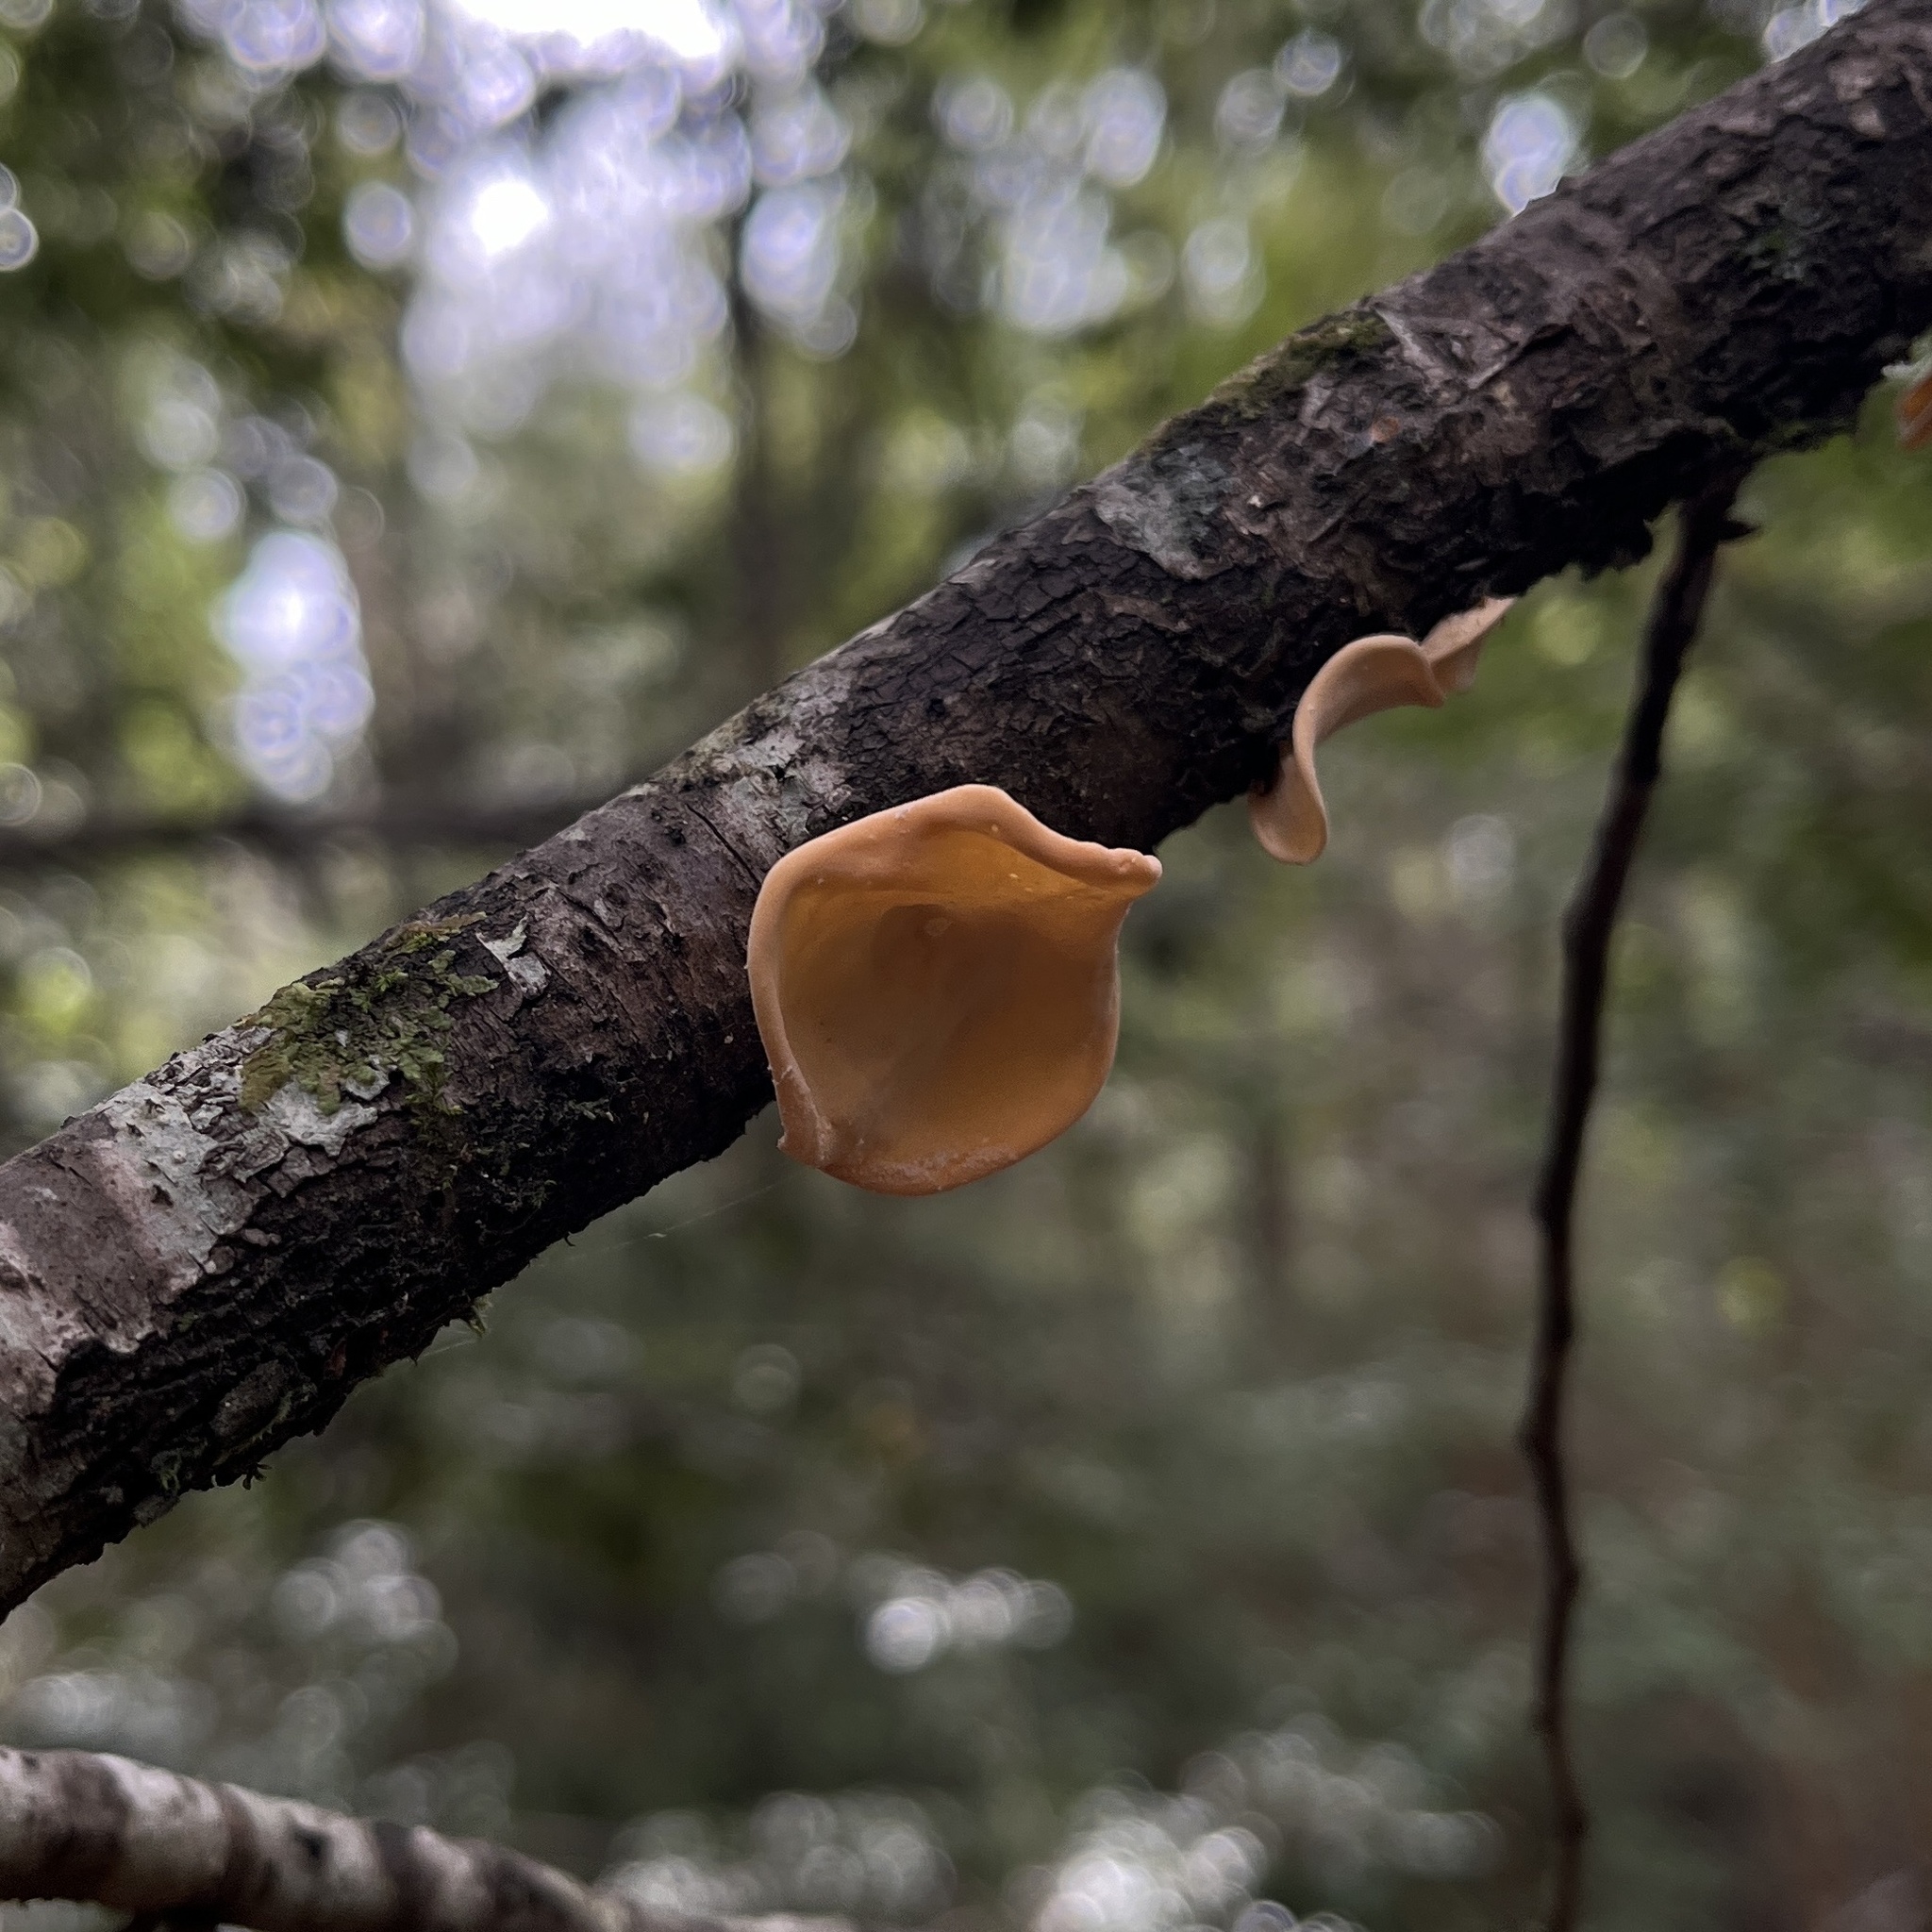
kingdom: Fungi
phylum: Basidiomycota
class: Agaricomycetes
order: Russulales
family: Stereaceae
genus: Aleurodiscus
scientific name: Aleurodiscus vitellinus
